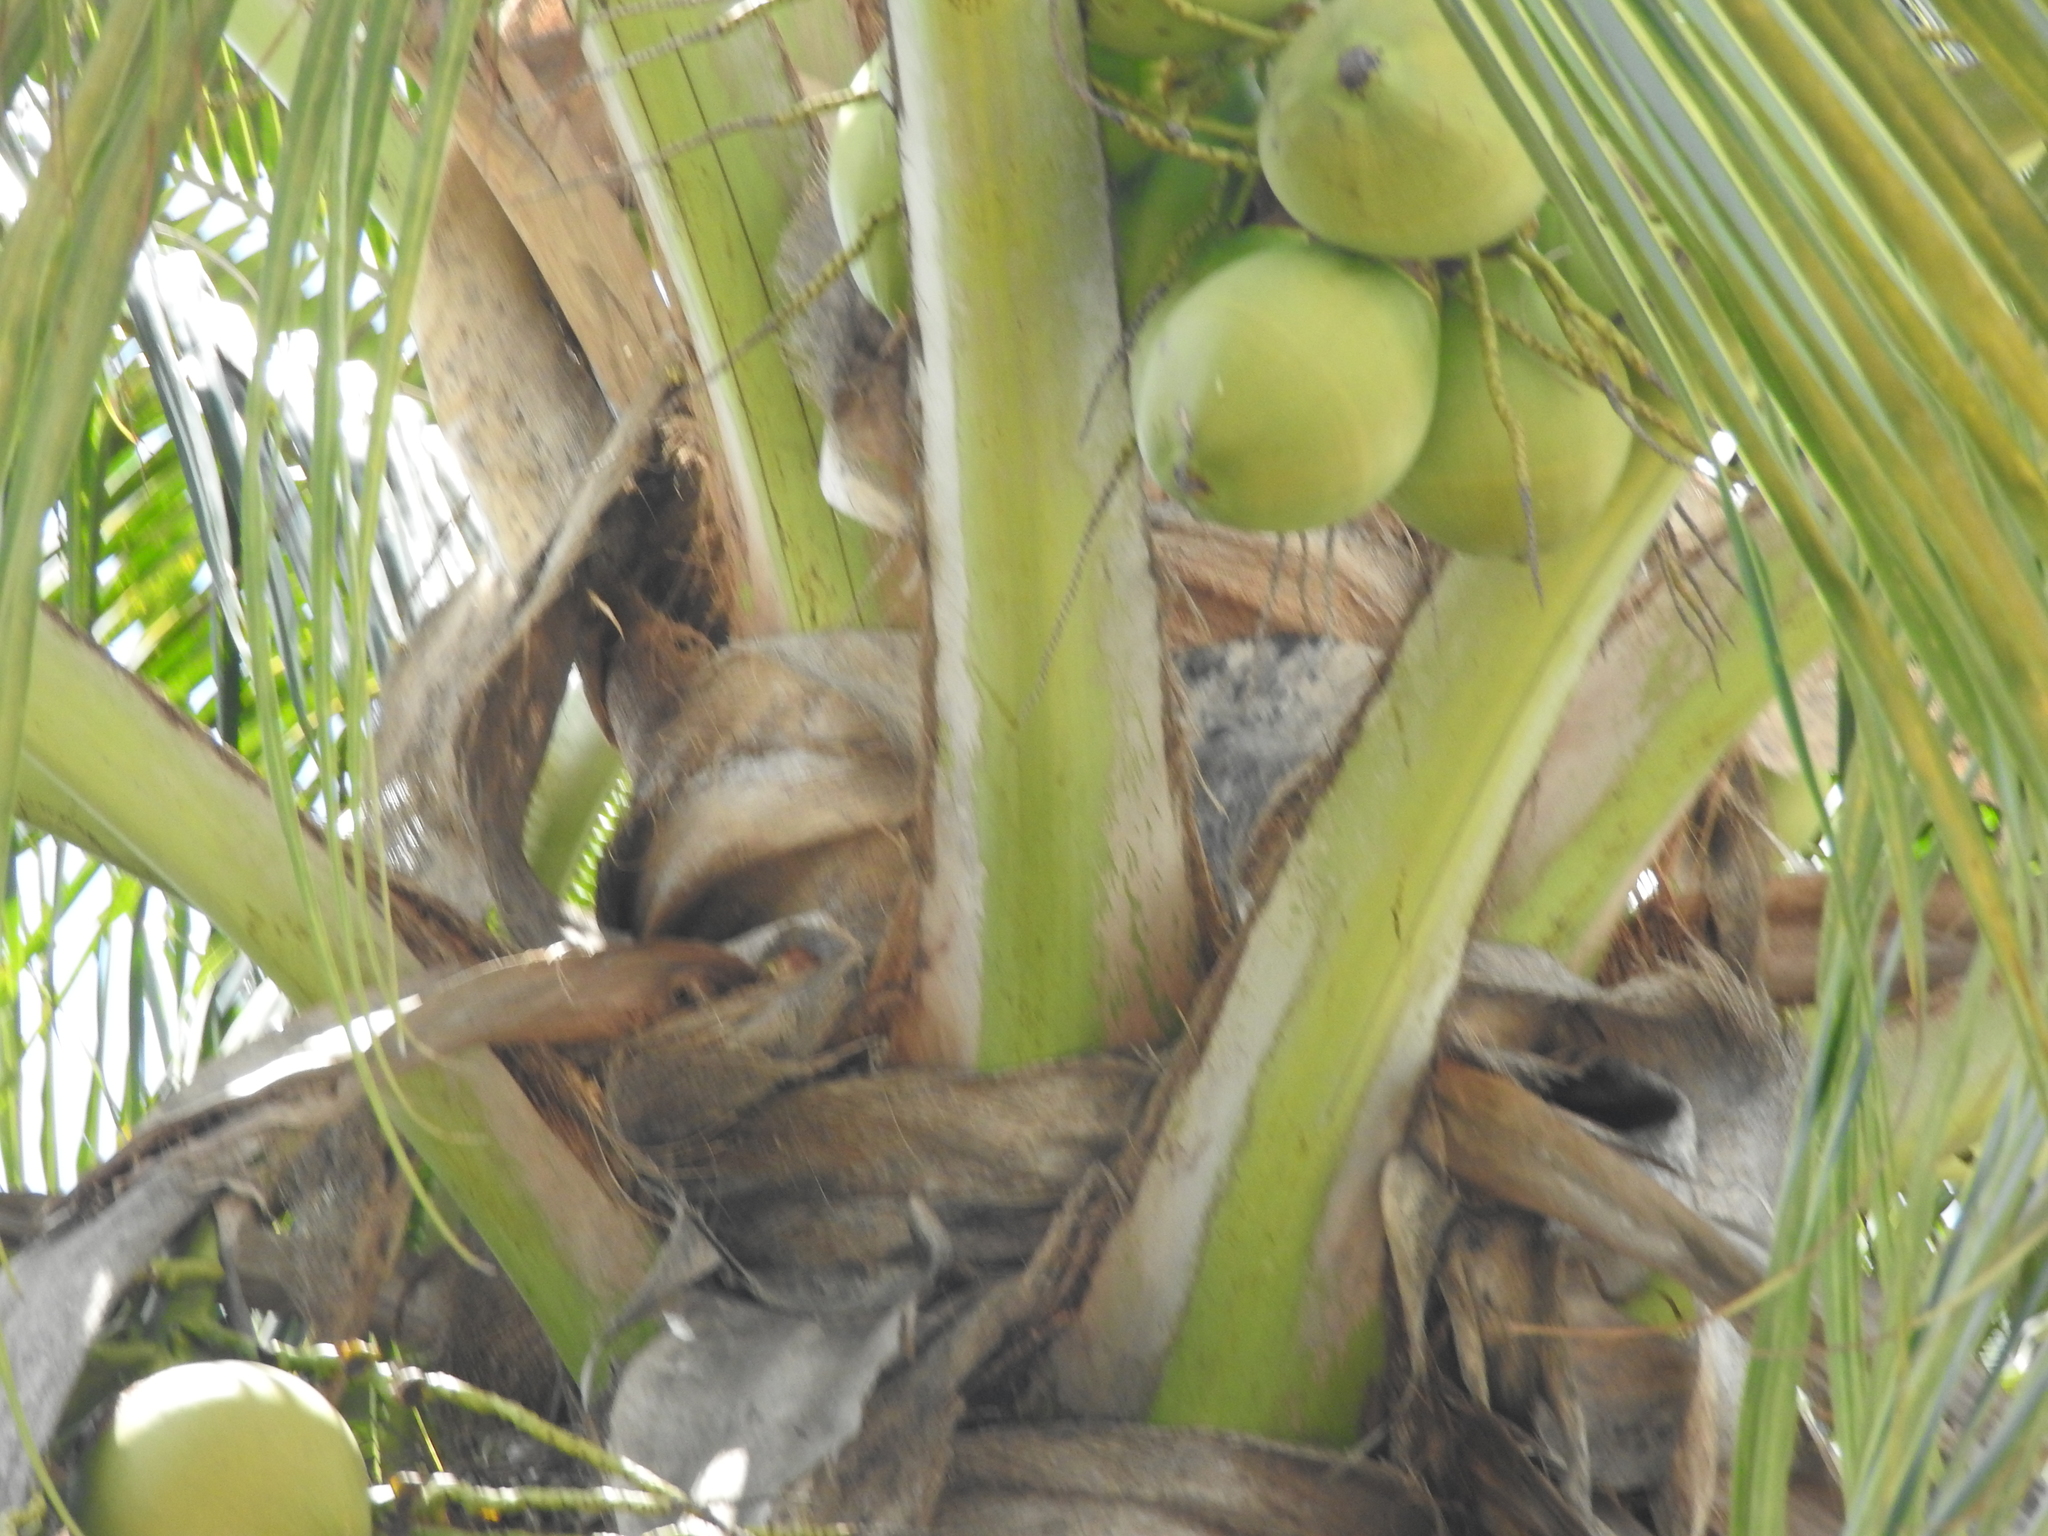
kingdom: Plantae
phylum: Tracheophyta
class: Liliopsida
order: Arecales
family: Arecaceae
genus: Cocos
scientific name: Cocos nucifera
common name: Coconut palm
